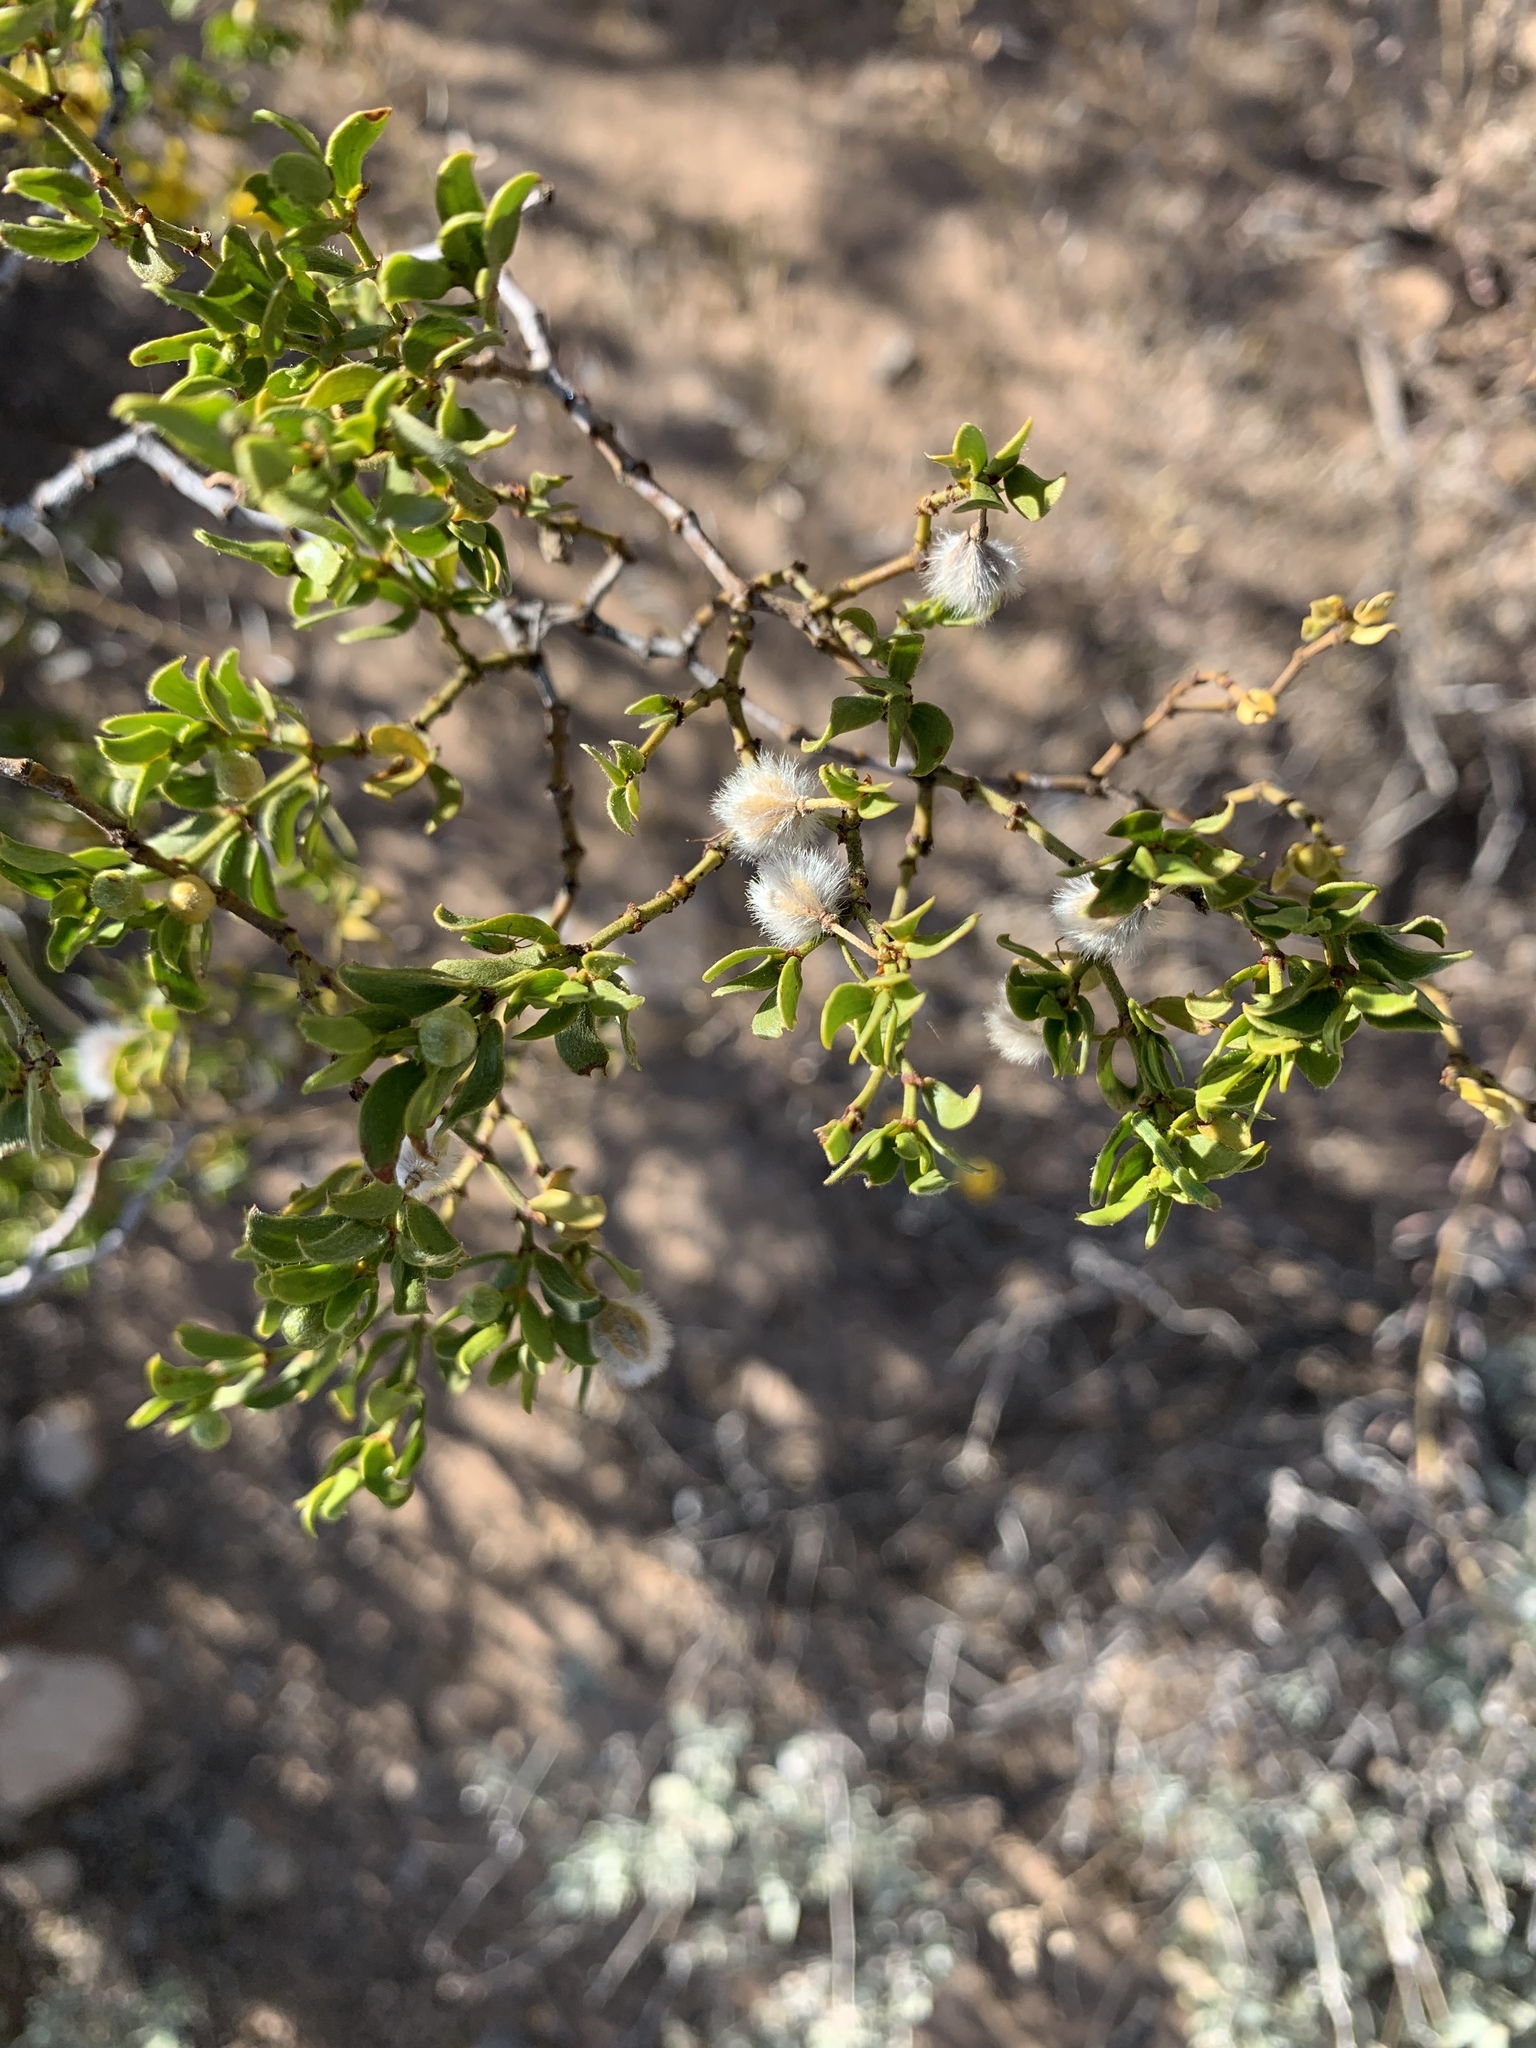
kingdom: Plantae
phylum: Tracheophyta
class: Magnoliopsida
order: Zygophyllales
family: Zygophyllaceae
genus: Larrea
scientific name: Larrea tridentata
